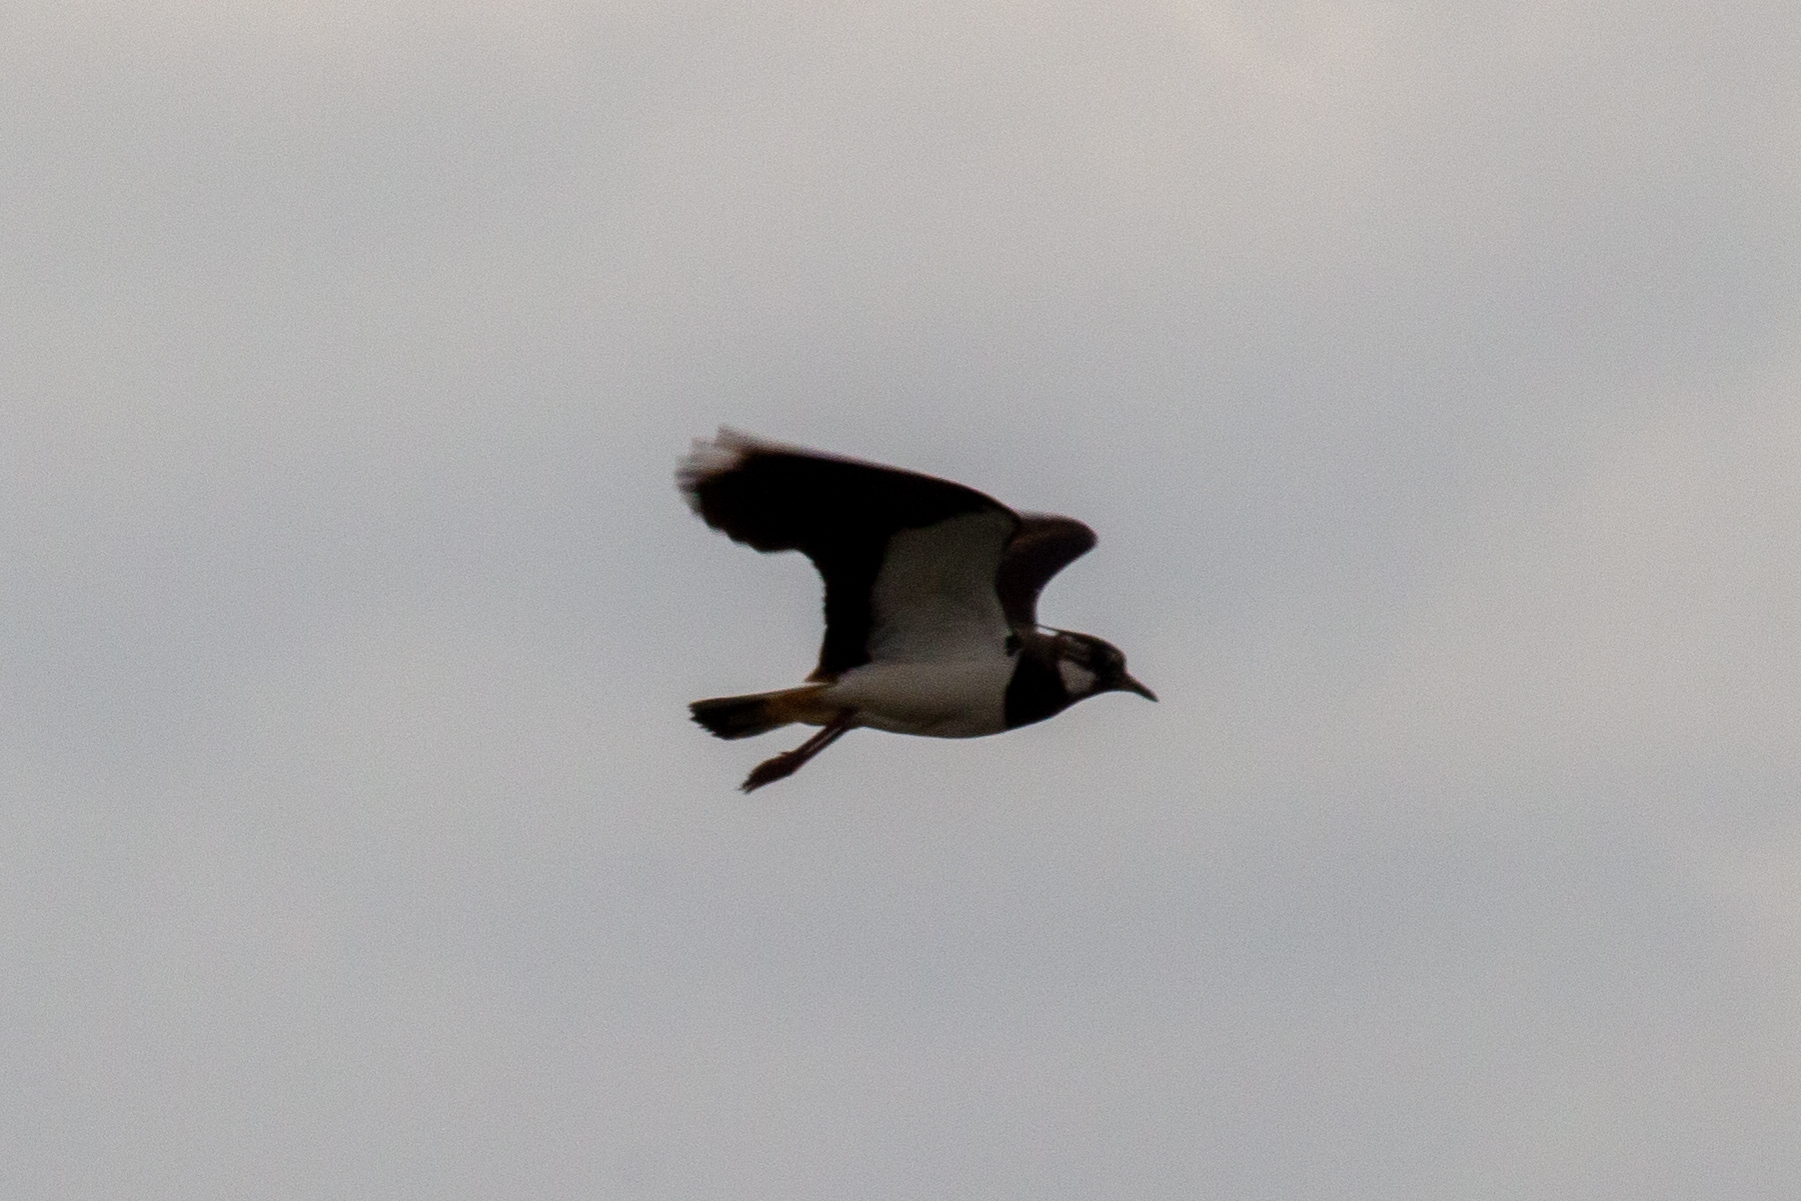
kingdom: Animalia
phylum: Chordata
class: Aves
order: Charadriiformes
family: Charadriidae
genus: Vanellus
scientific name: Vanellus vanellus
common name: Northern lapwing
